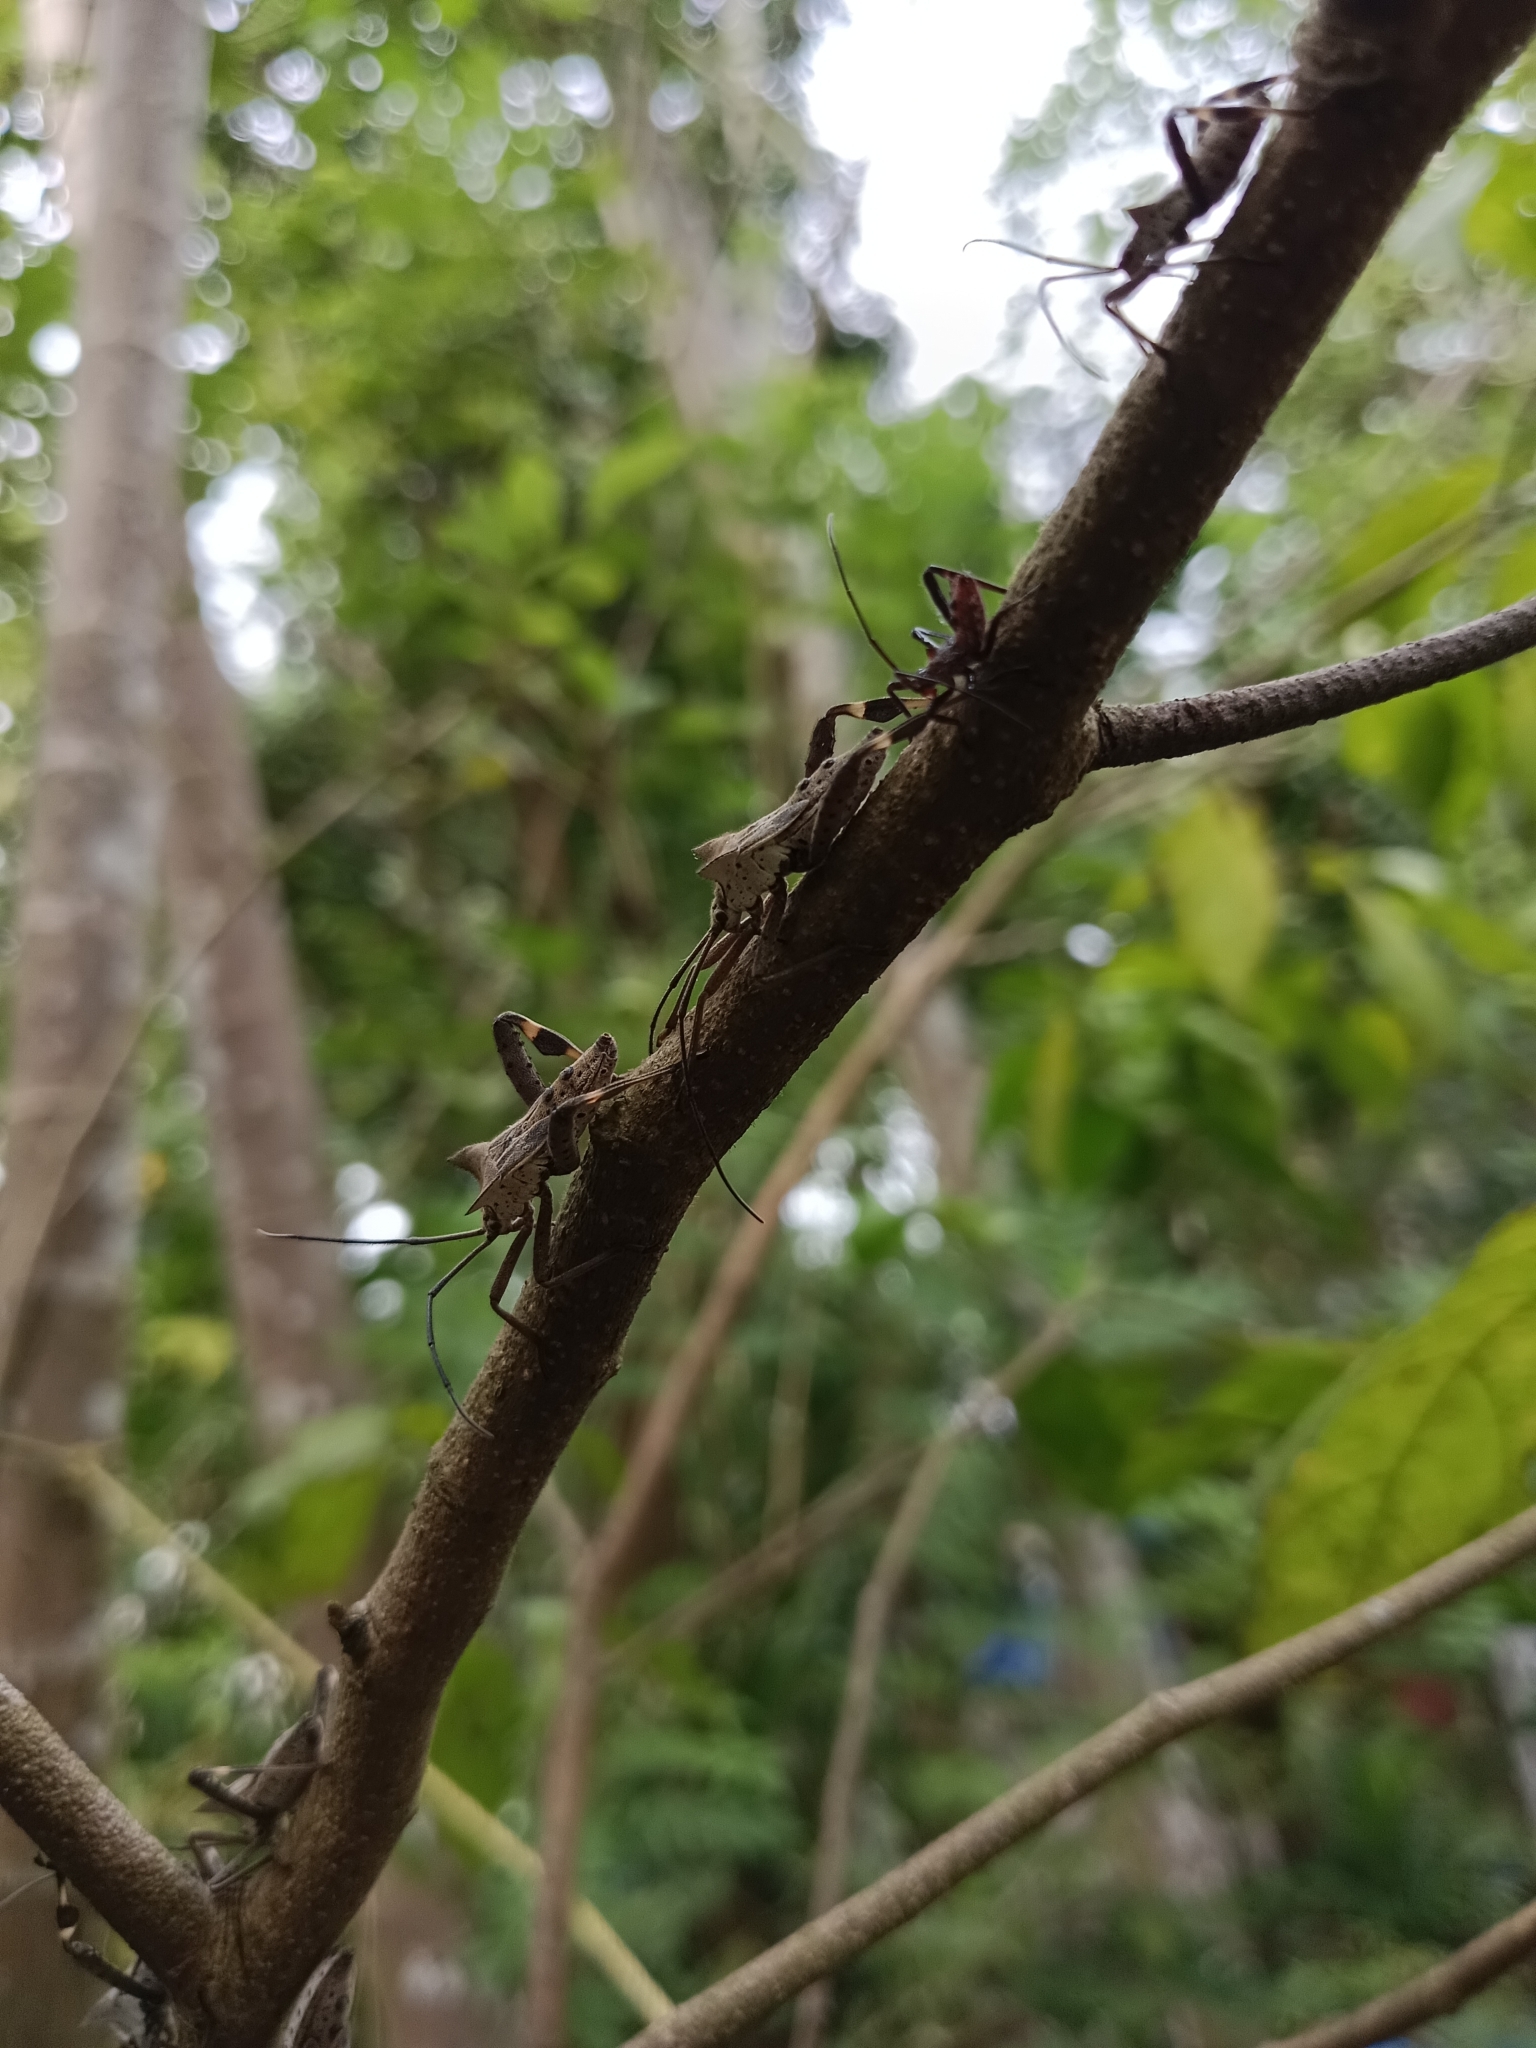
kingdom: Animalia
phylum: Arthropoda
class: Insecta
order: Hemiptera
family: Coreidae
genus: Trematocoris
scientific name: Trematocoris lobipes
